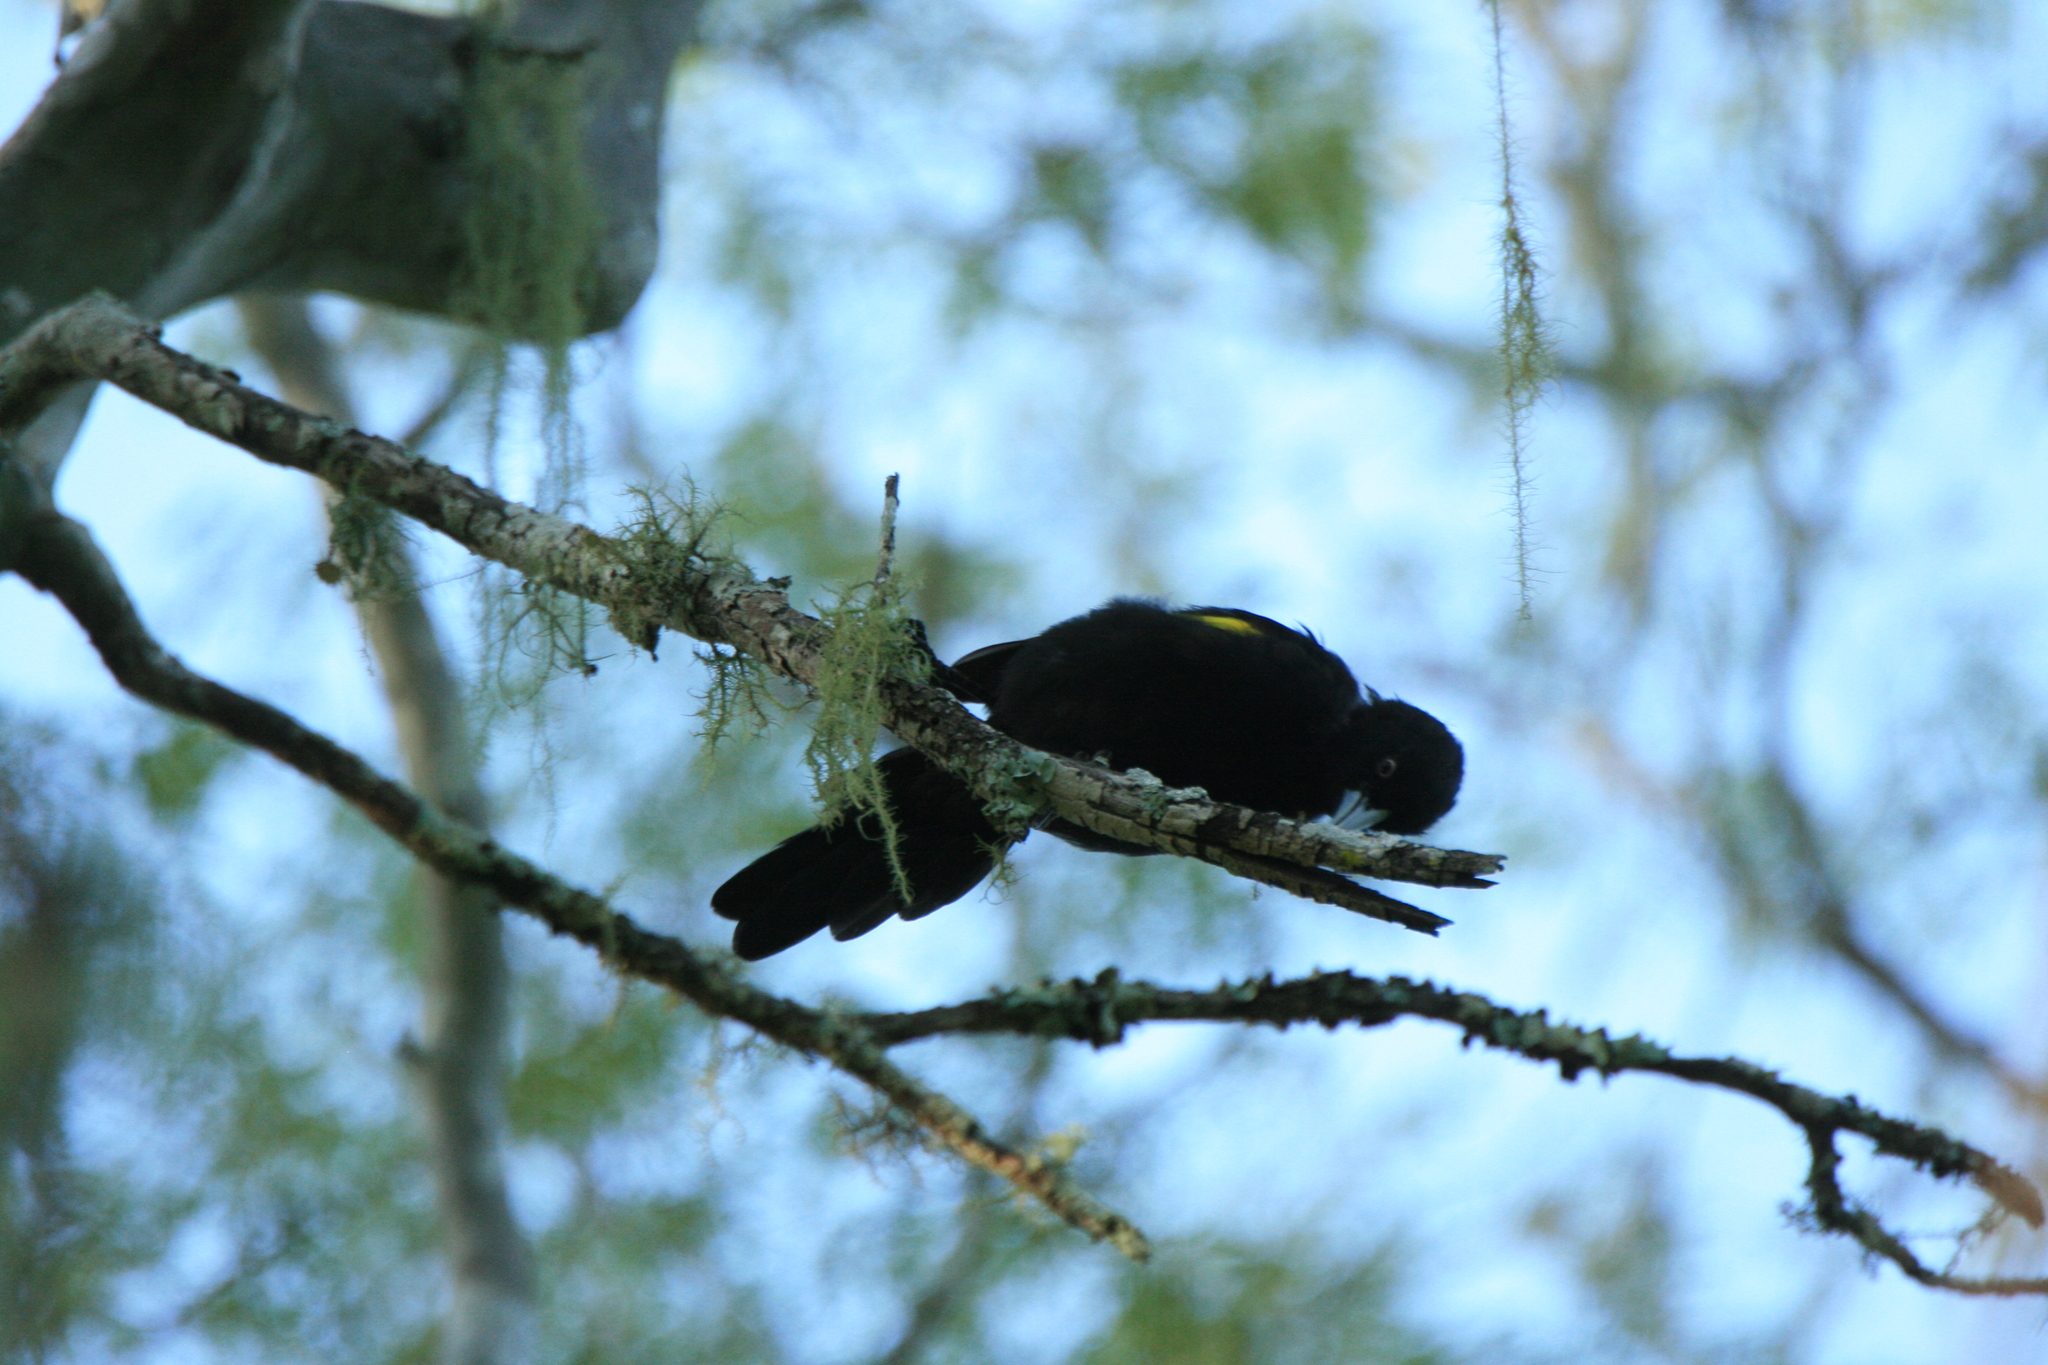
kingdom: Animalia
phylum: Chordata
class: Aves
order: Passeriformes
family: Icteridae
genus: Cacicus
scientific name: Cacicus chrysopterus
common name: Golden-winged cacique
